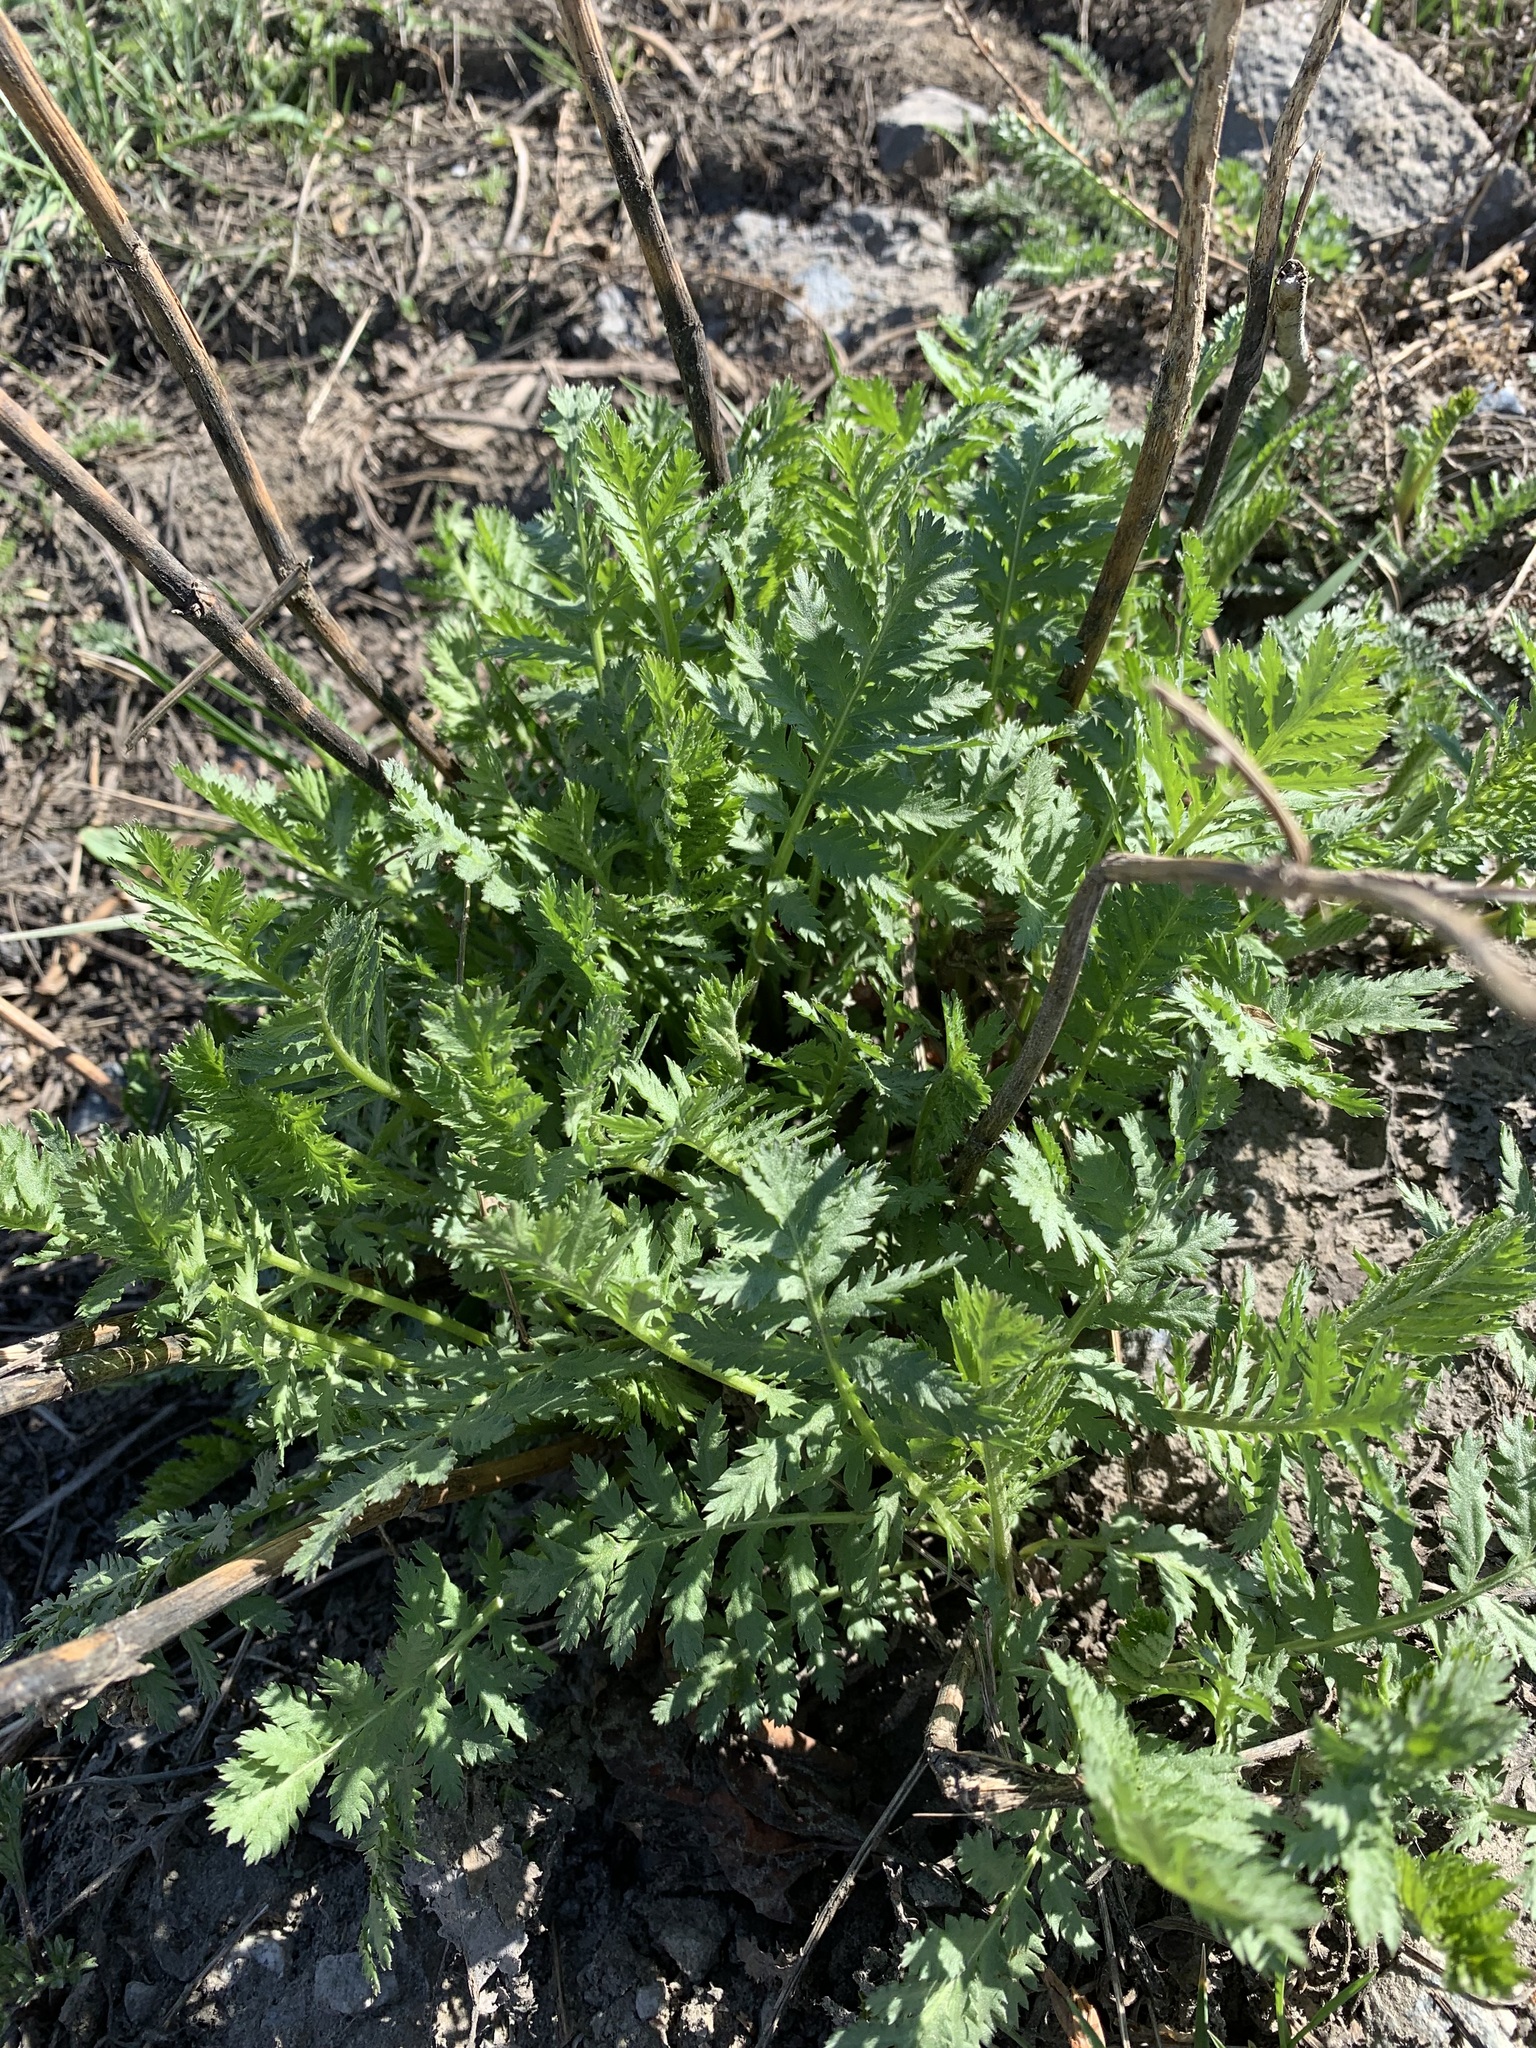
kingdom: Plantae
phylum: Tracheophyta
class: Magnoliopsida
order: Asterales
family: Asteraceae
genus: Tanacetum
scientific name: Tanacetum vulgare
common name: Common tansy
